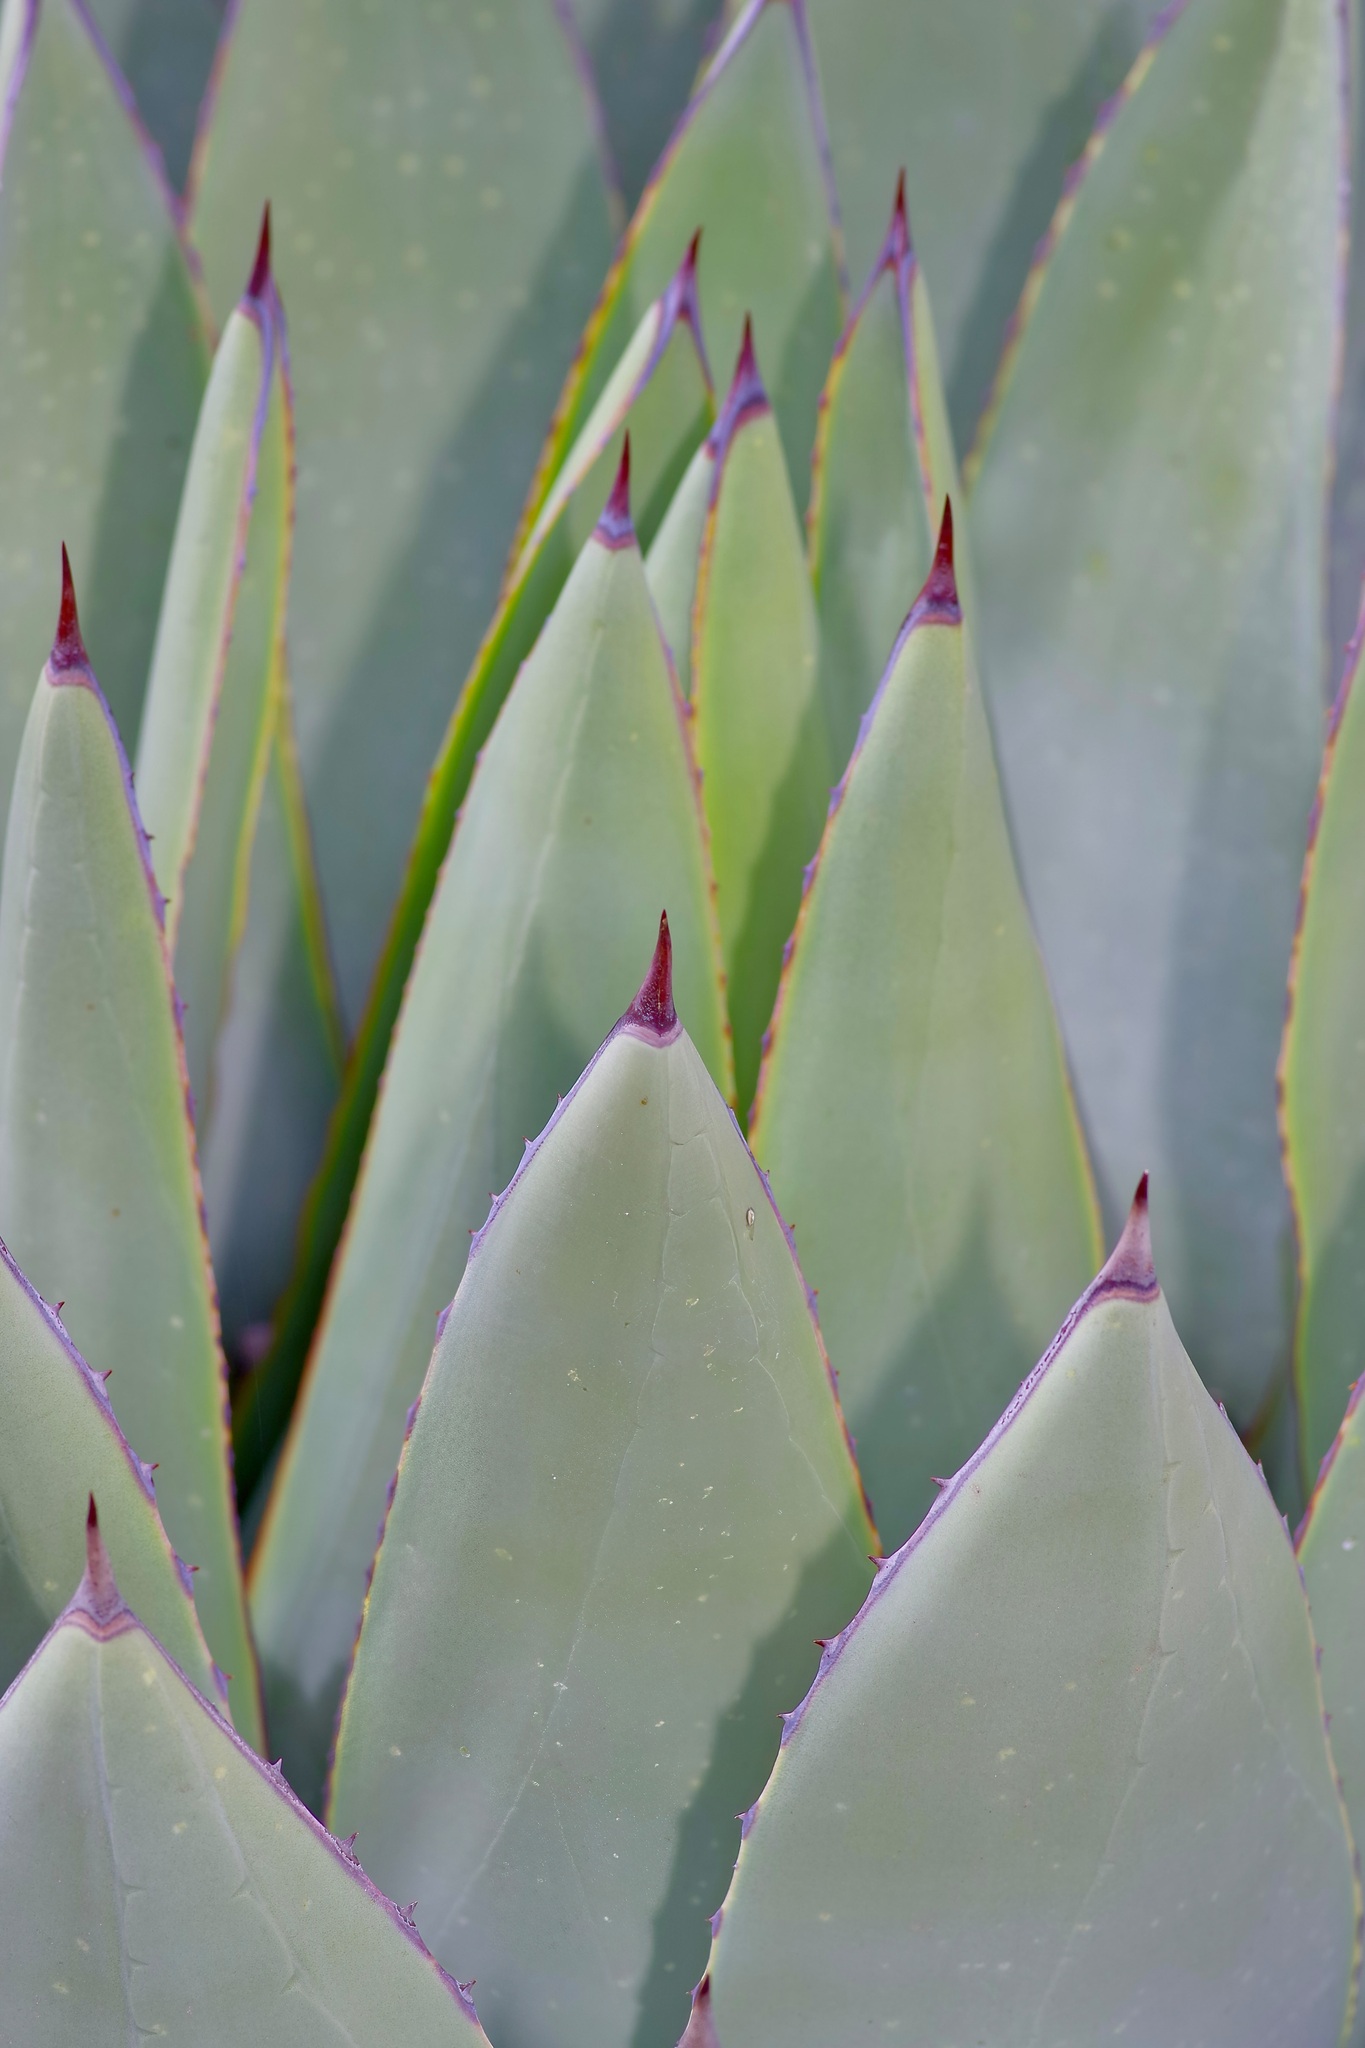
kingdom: Plantae
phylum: Tracheophyta
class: Liliopsida
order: Asparagales
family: Asparagaceae
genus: Agave
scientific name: Agave parryi
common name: Parry's agave
